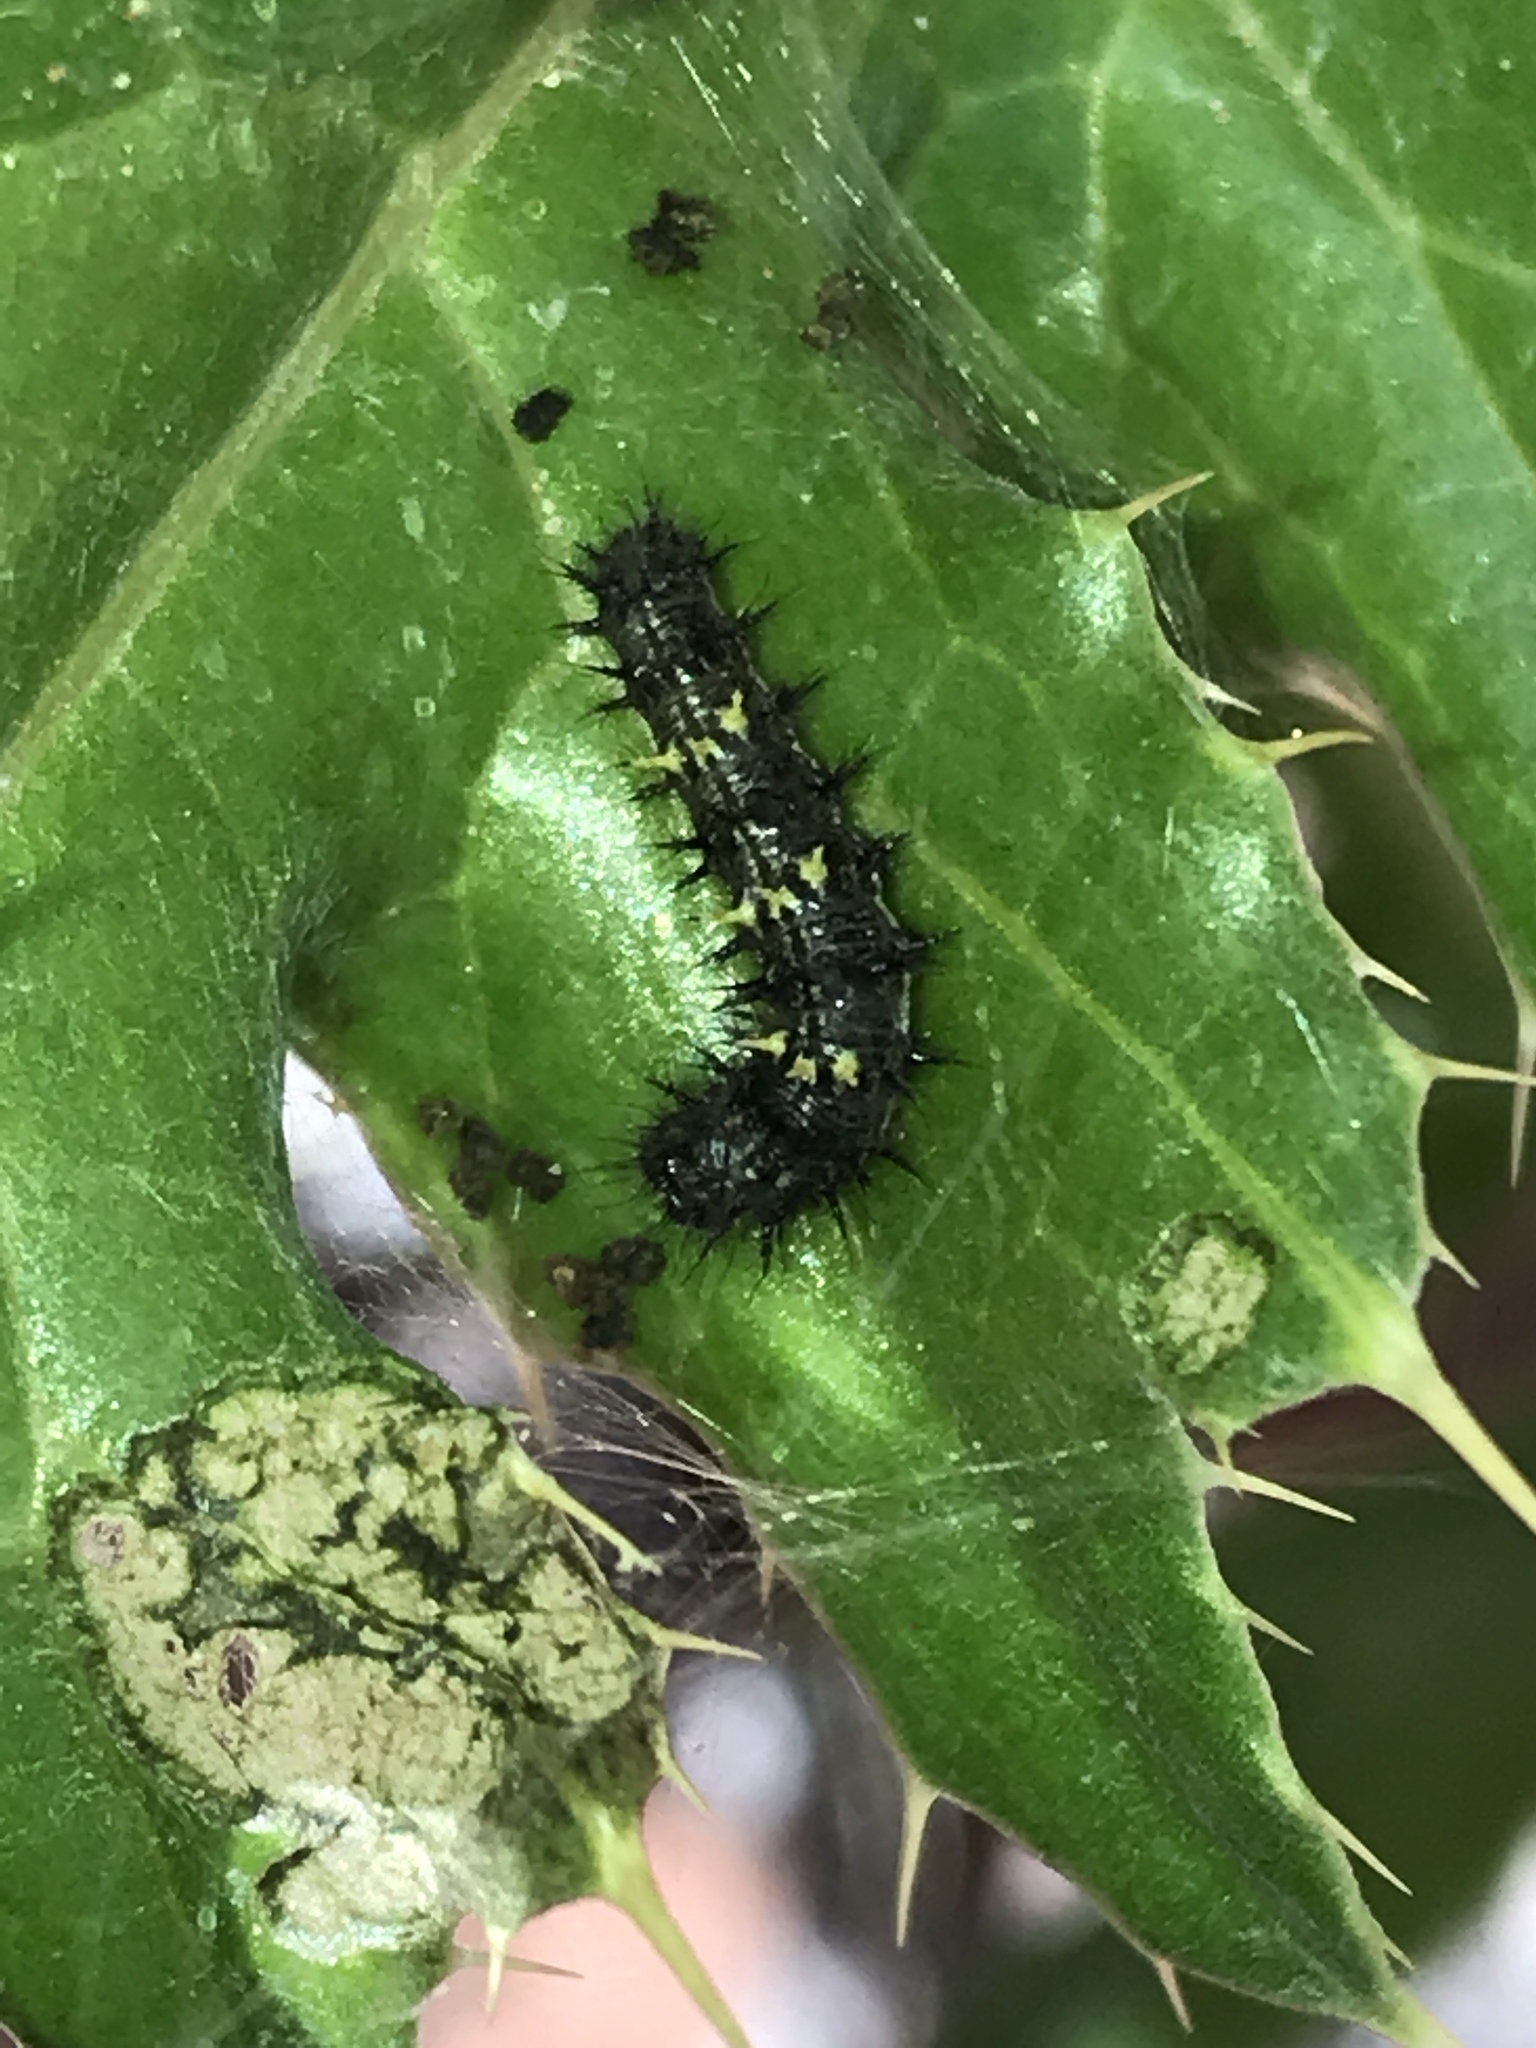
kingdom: Animalia
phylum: Arthropoda
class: Insecta
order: Lepidoptera
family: Nymphalidae
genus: Vanessa
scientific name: Vanessa cardui
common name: Painted lady
